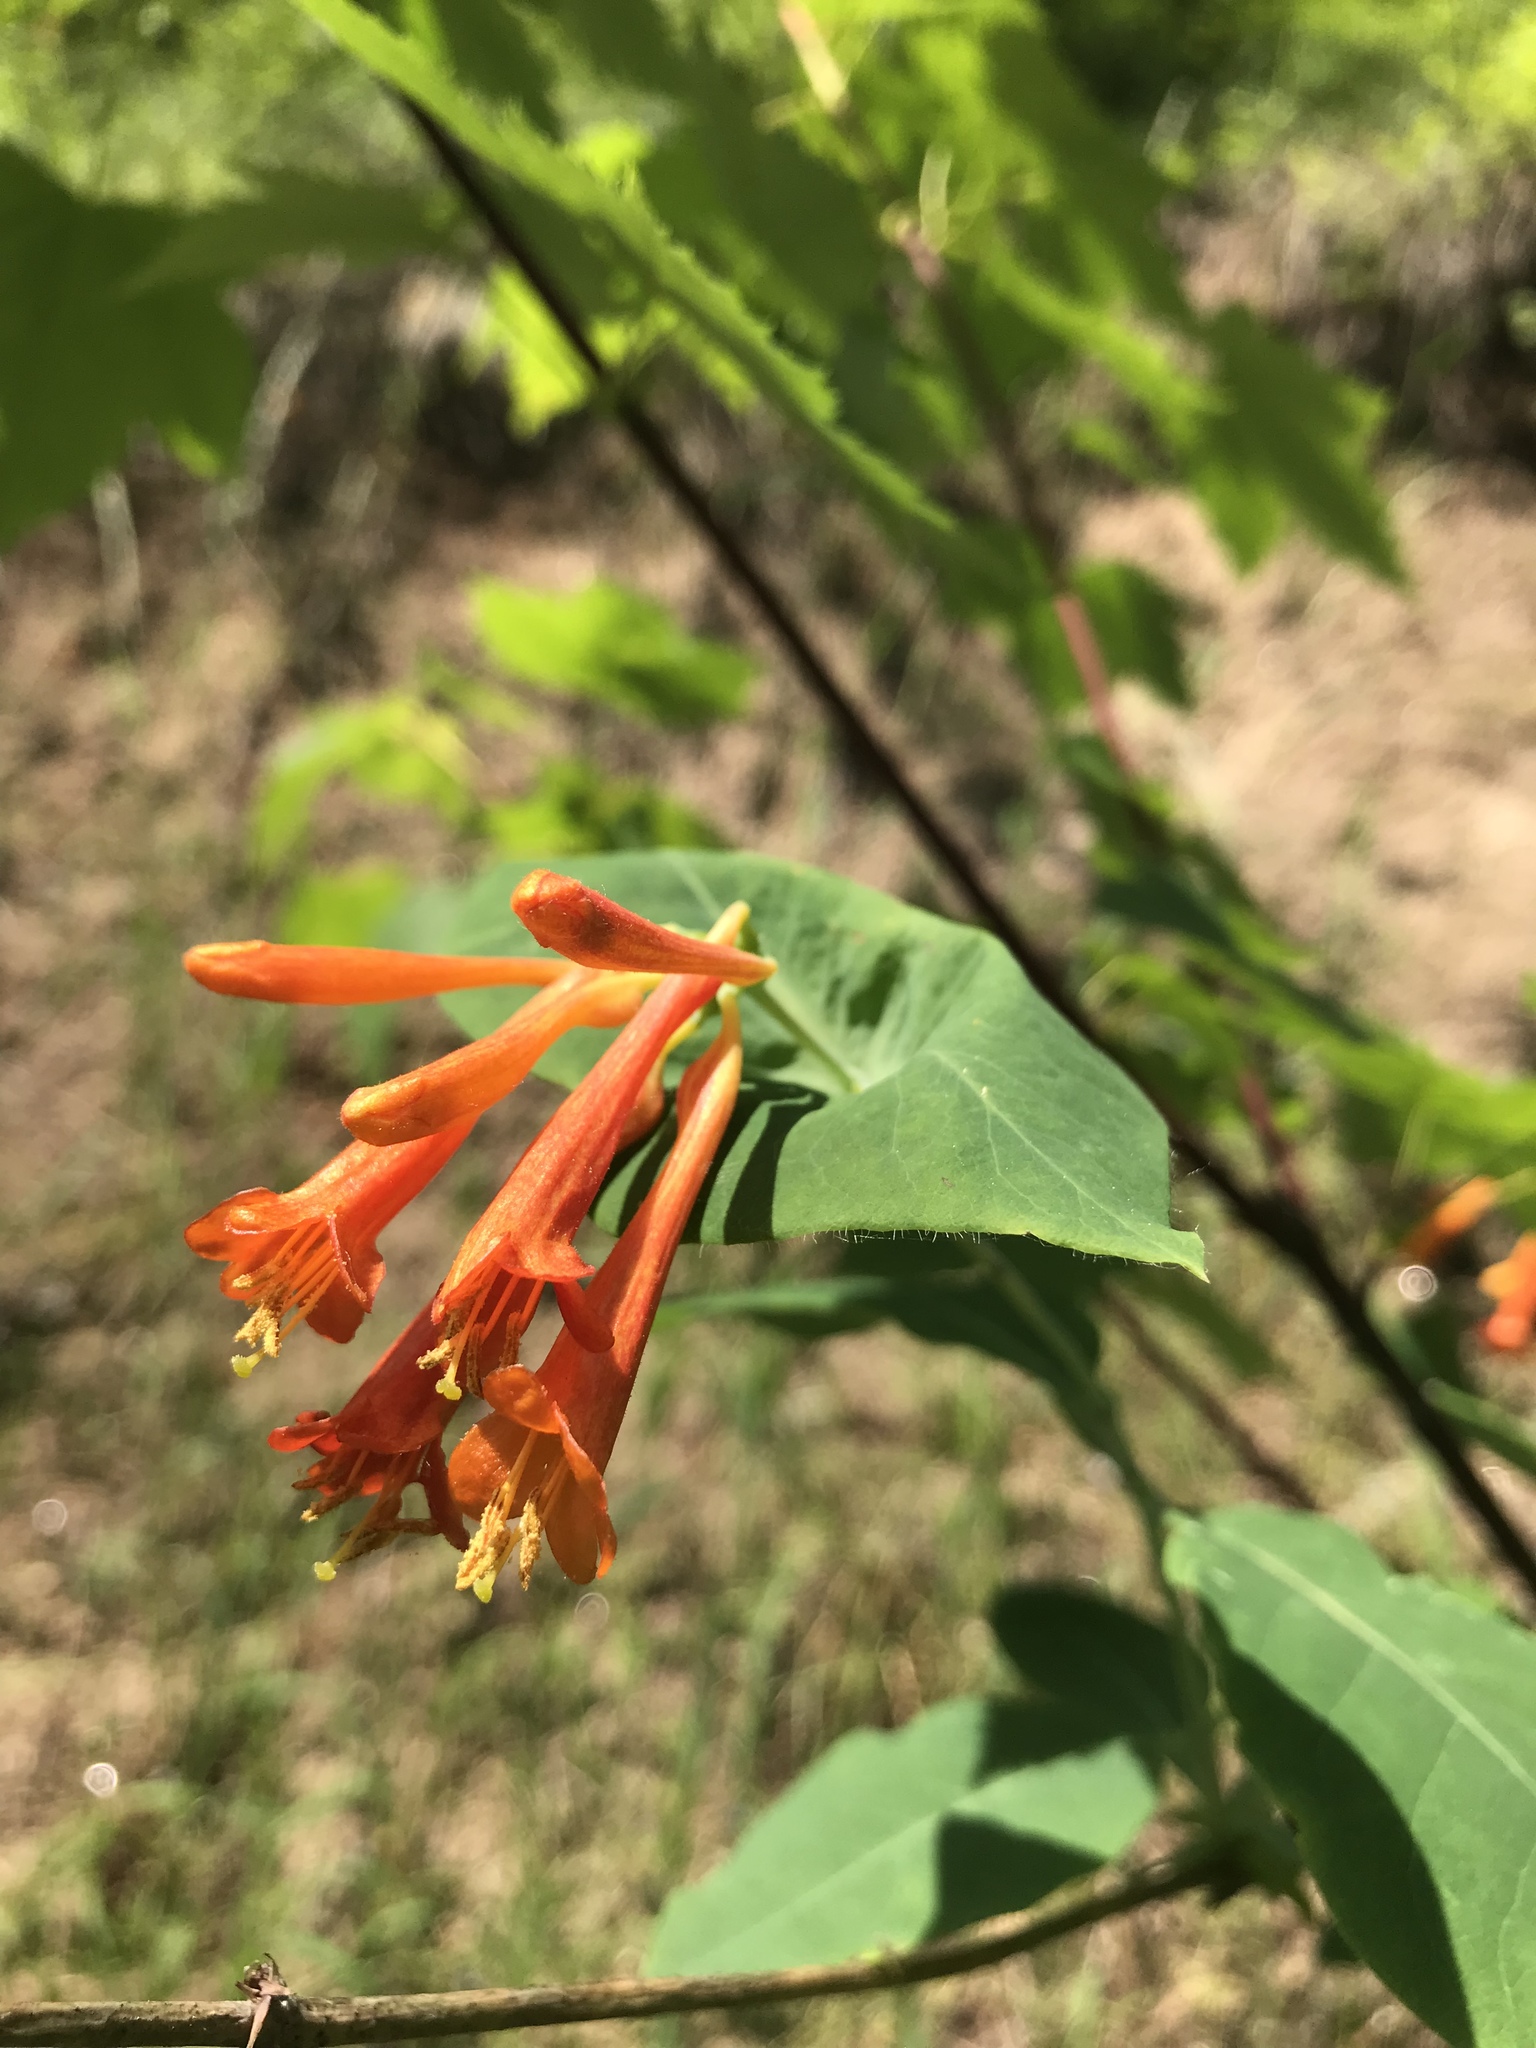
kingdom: Plantae
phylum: Tracheophyta
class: Magnoliopsida
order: Dipsacales
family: Caprifoliaceae
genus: Lonicera
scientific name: Lonicera ciliosa
